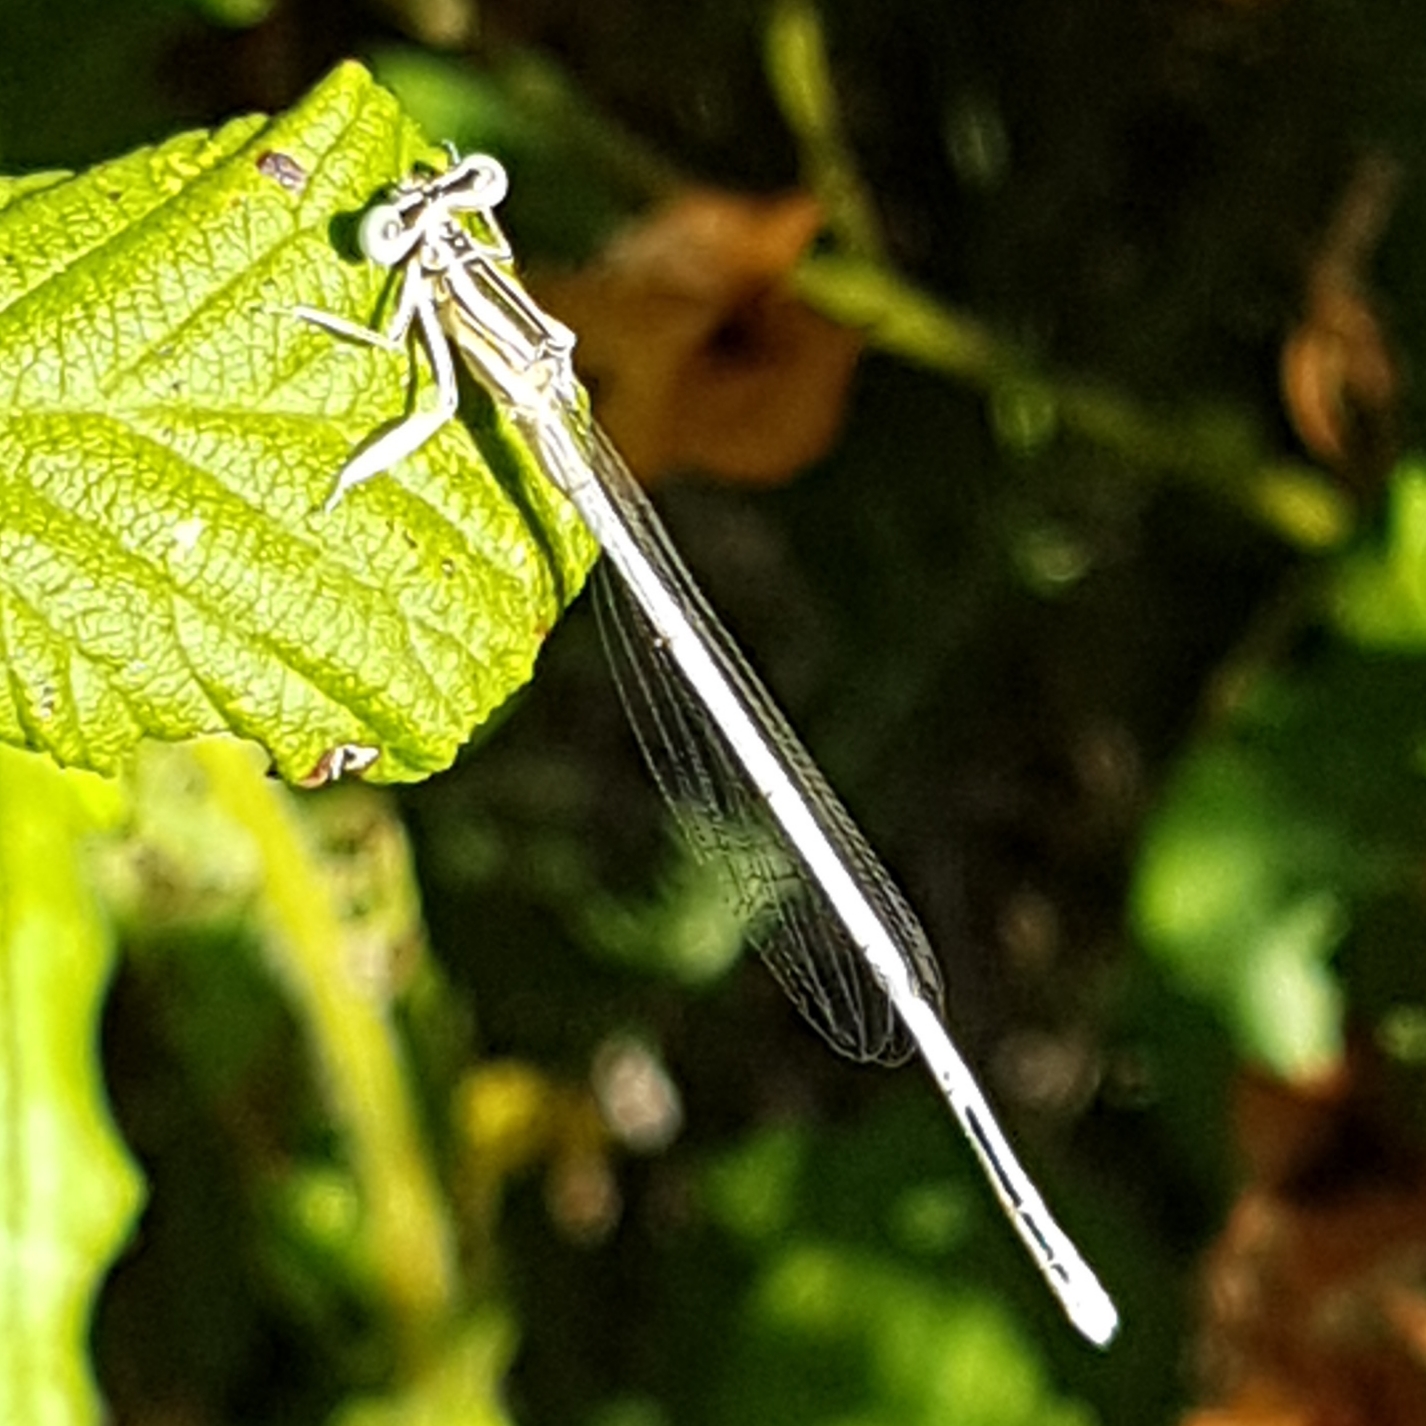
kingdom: Animalia
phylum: Arthropoda
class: Insecta
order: Odonata
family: Platycnemididae
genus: Platycnemis
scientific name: Platycnemis latipes
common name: White featherleg
